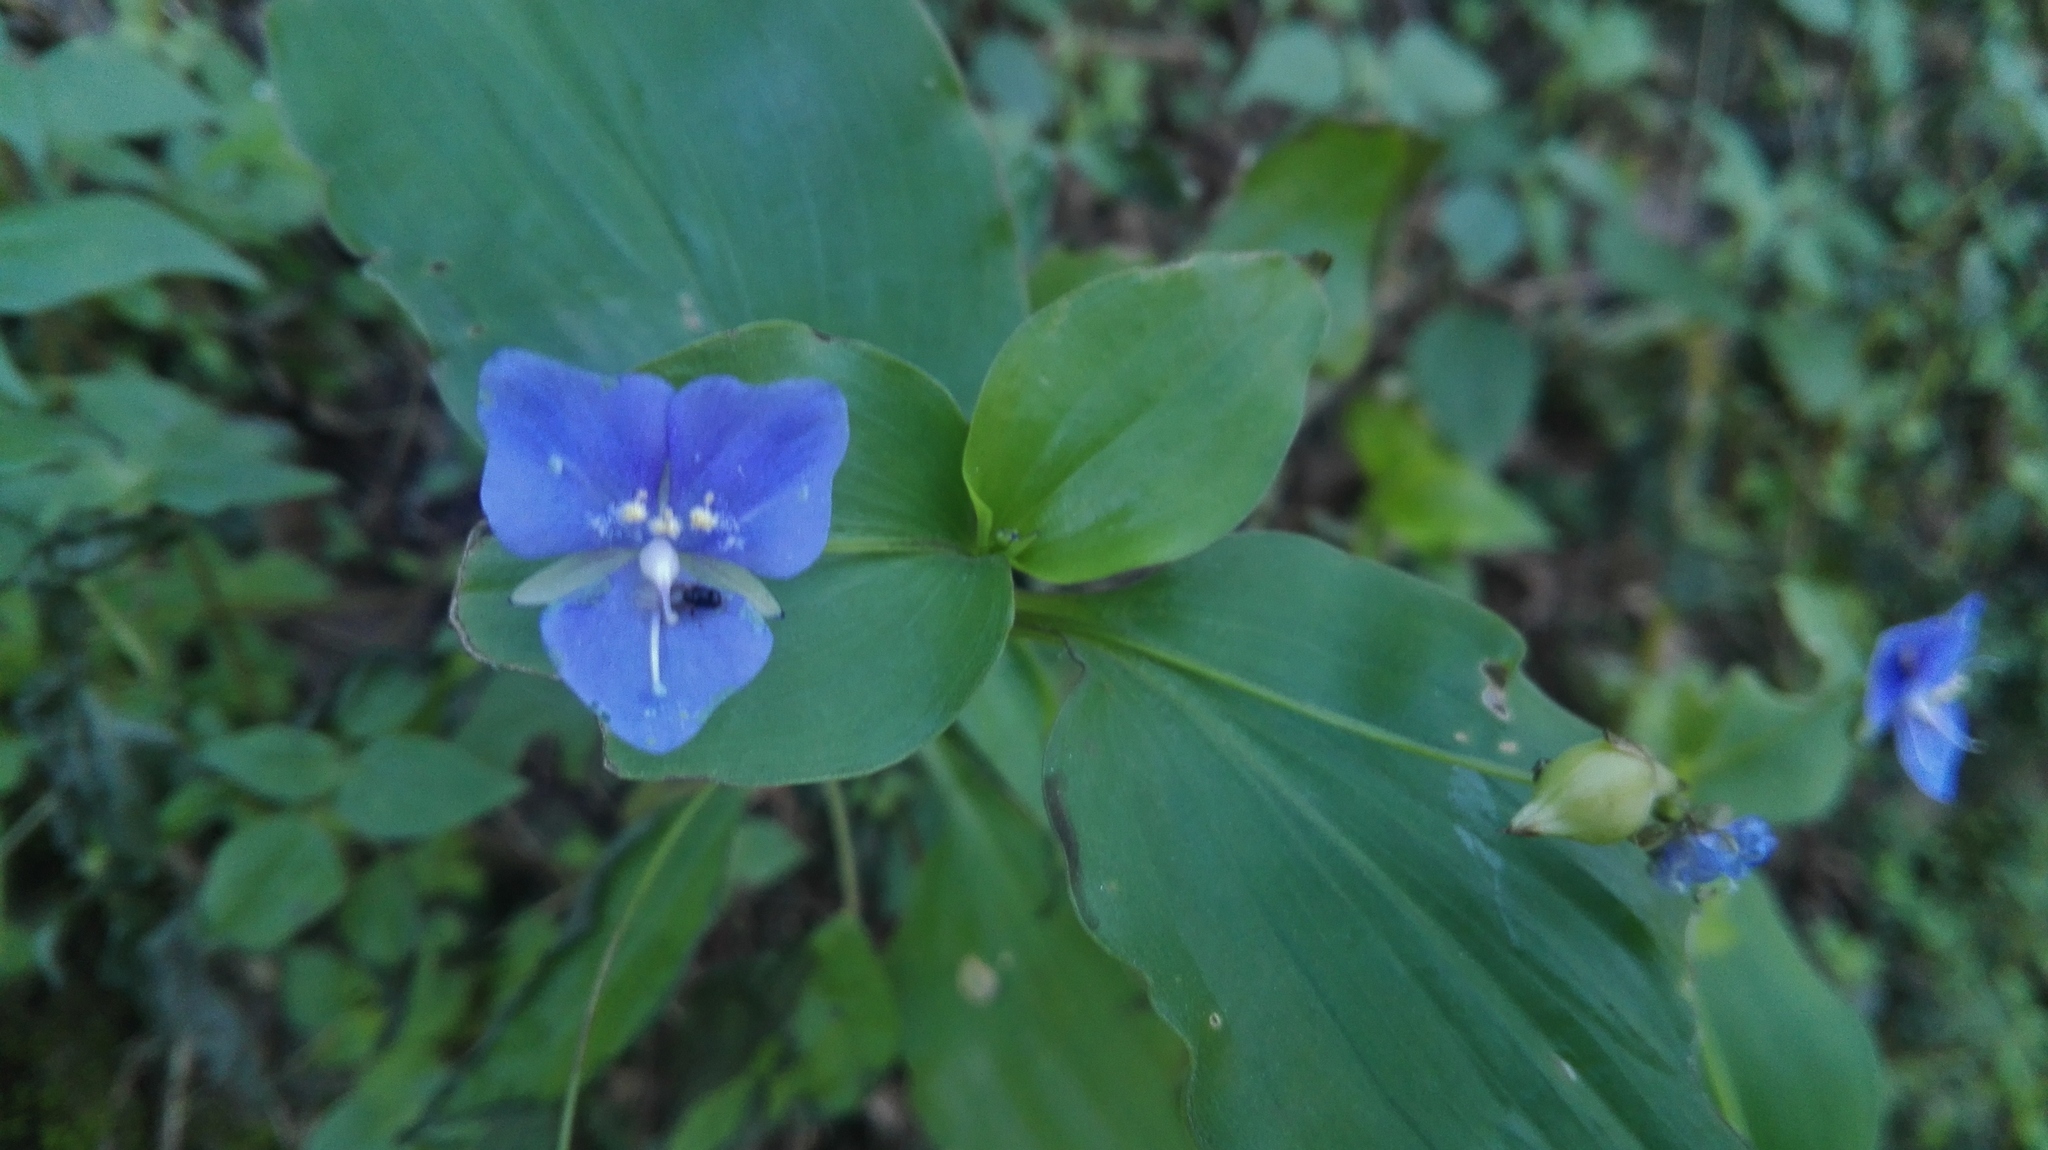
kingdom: Plantae
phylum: Tracheophyta
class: Liliopsida
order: Commelinales
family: Commelinaceae
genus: Tinantia
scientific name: Tinantia pringlei
